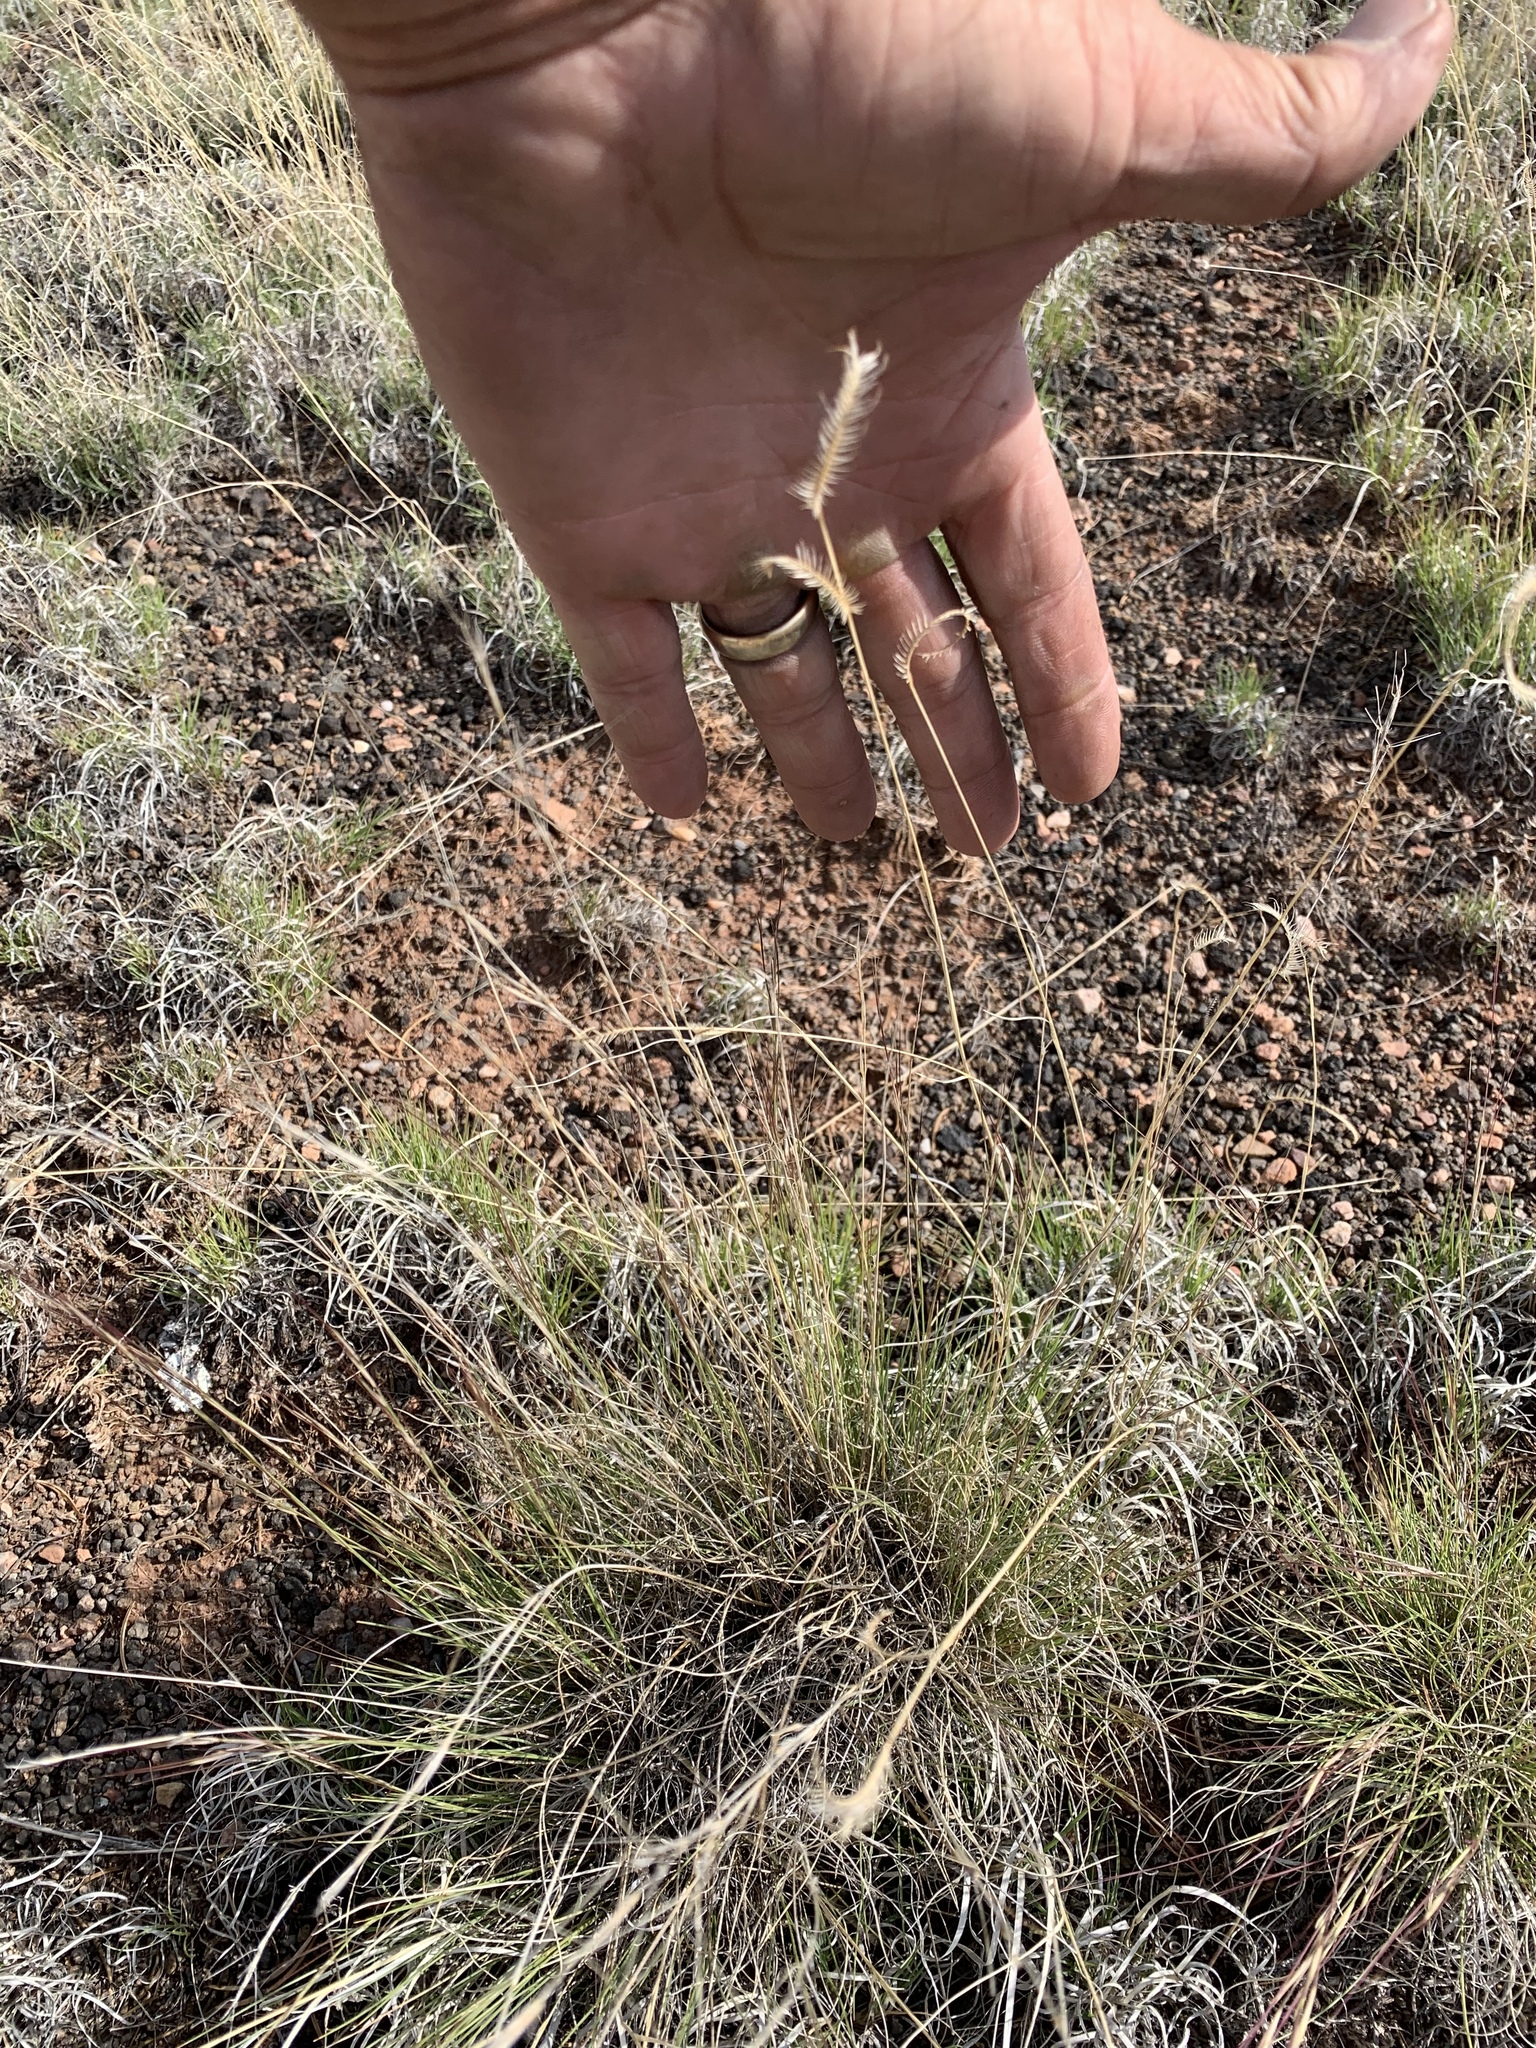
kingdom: Plantae
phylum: Tracheophyta
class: Liliopsida
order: Poales
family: Poaceae
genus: Bouteloua
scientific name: Bouteloua gracilis
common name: Blue grama
